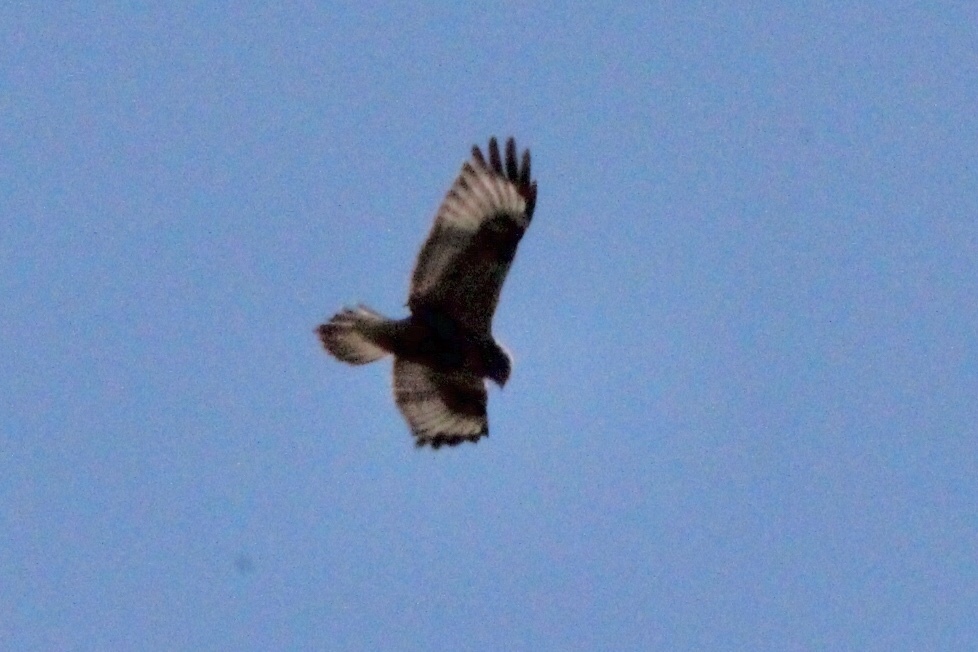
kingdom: Animalia
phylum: Chordata
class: Aves
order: Accipitriformes
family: Accipitridae
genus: Buteo
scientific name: Buteo lagopus
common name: Rough-legged buzzard
